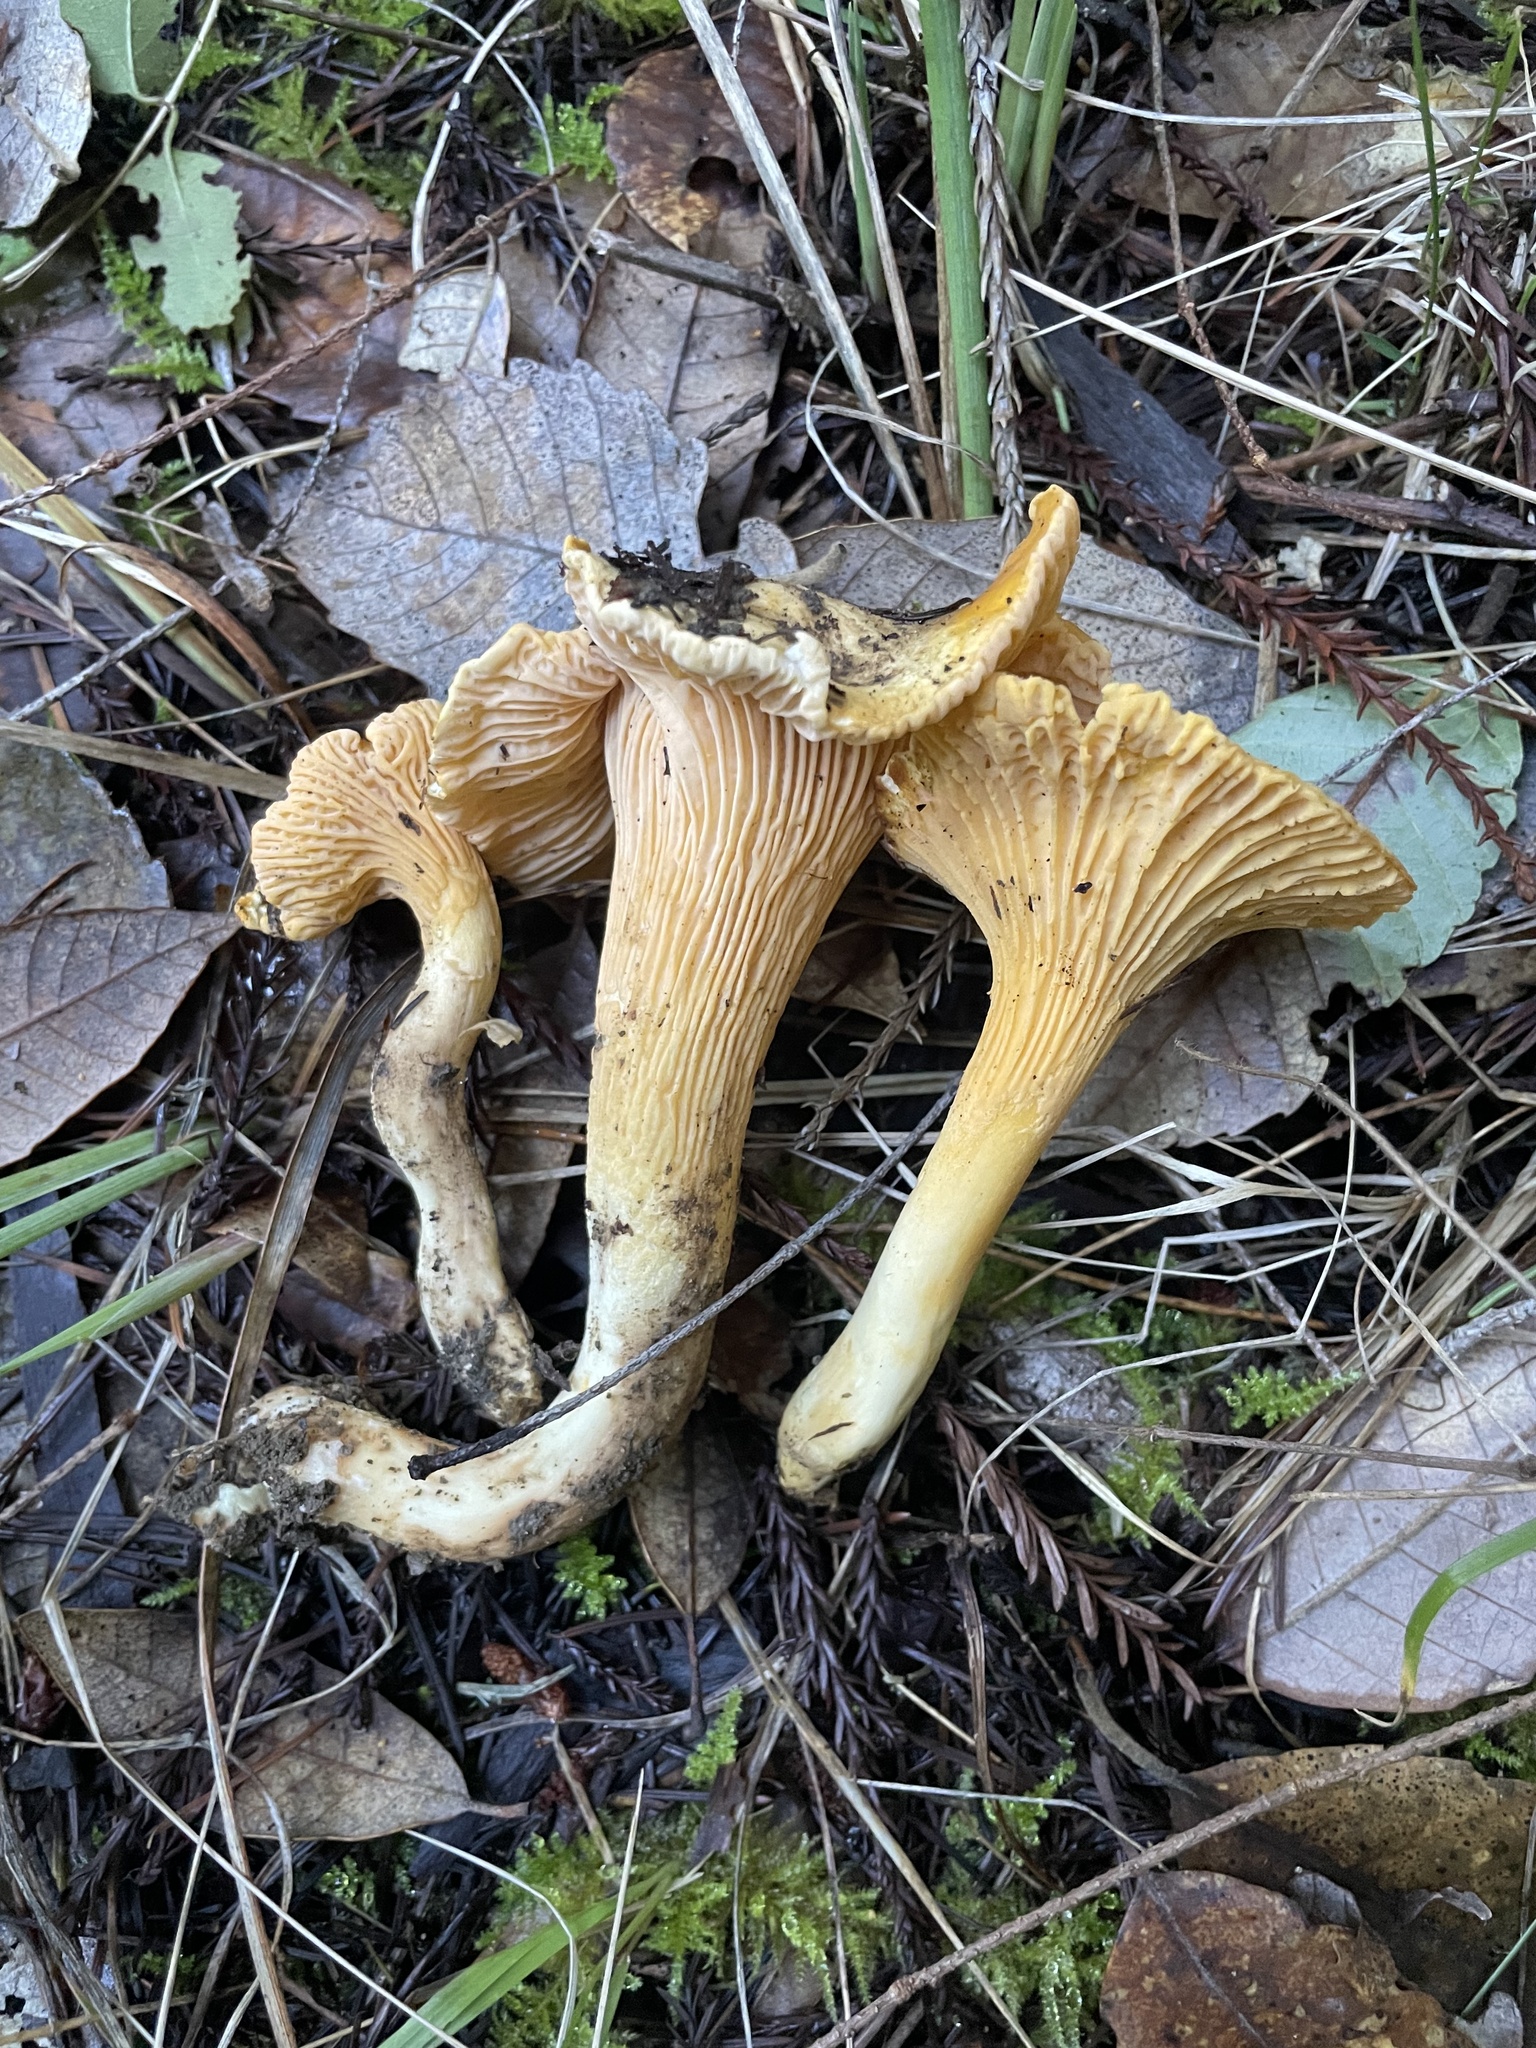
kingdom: Fungi
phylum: Basidiomycota
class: Agaricomycetes
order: Cantharellales
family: Hydnaceae
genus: Cantharellus
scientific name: Cantharellus formosus
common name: Pacific golden chanterelle
